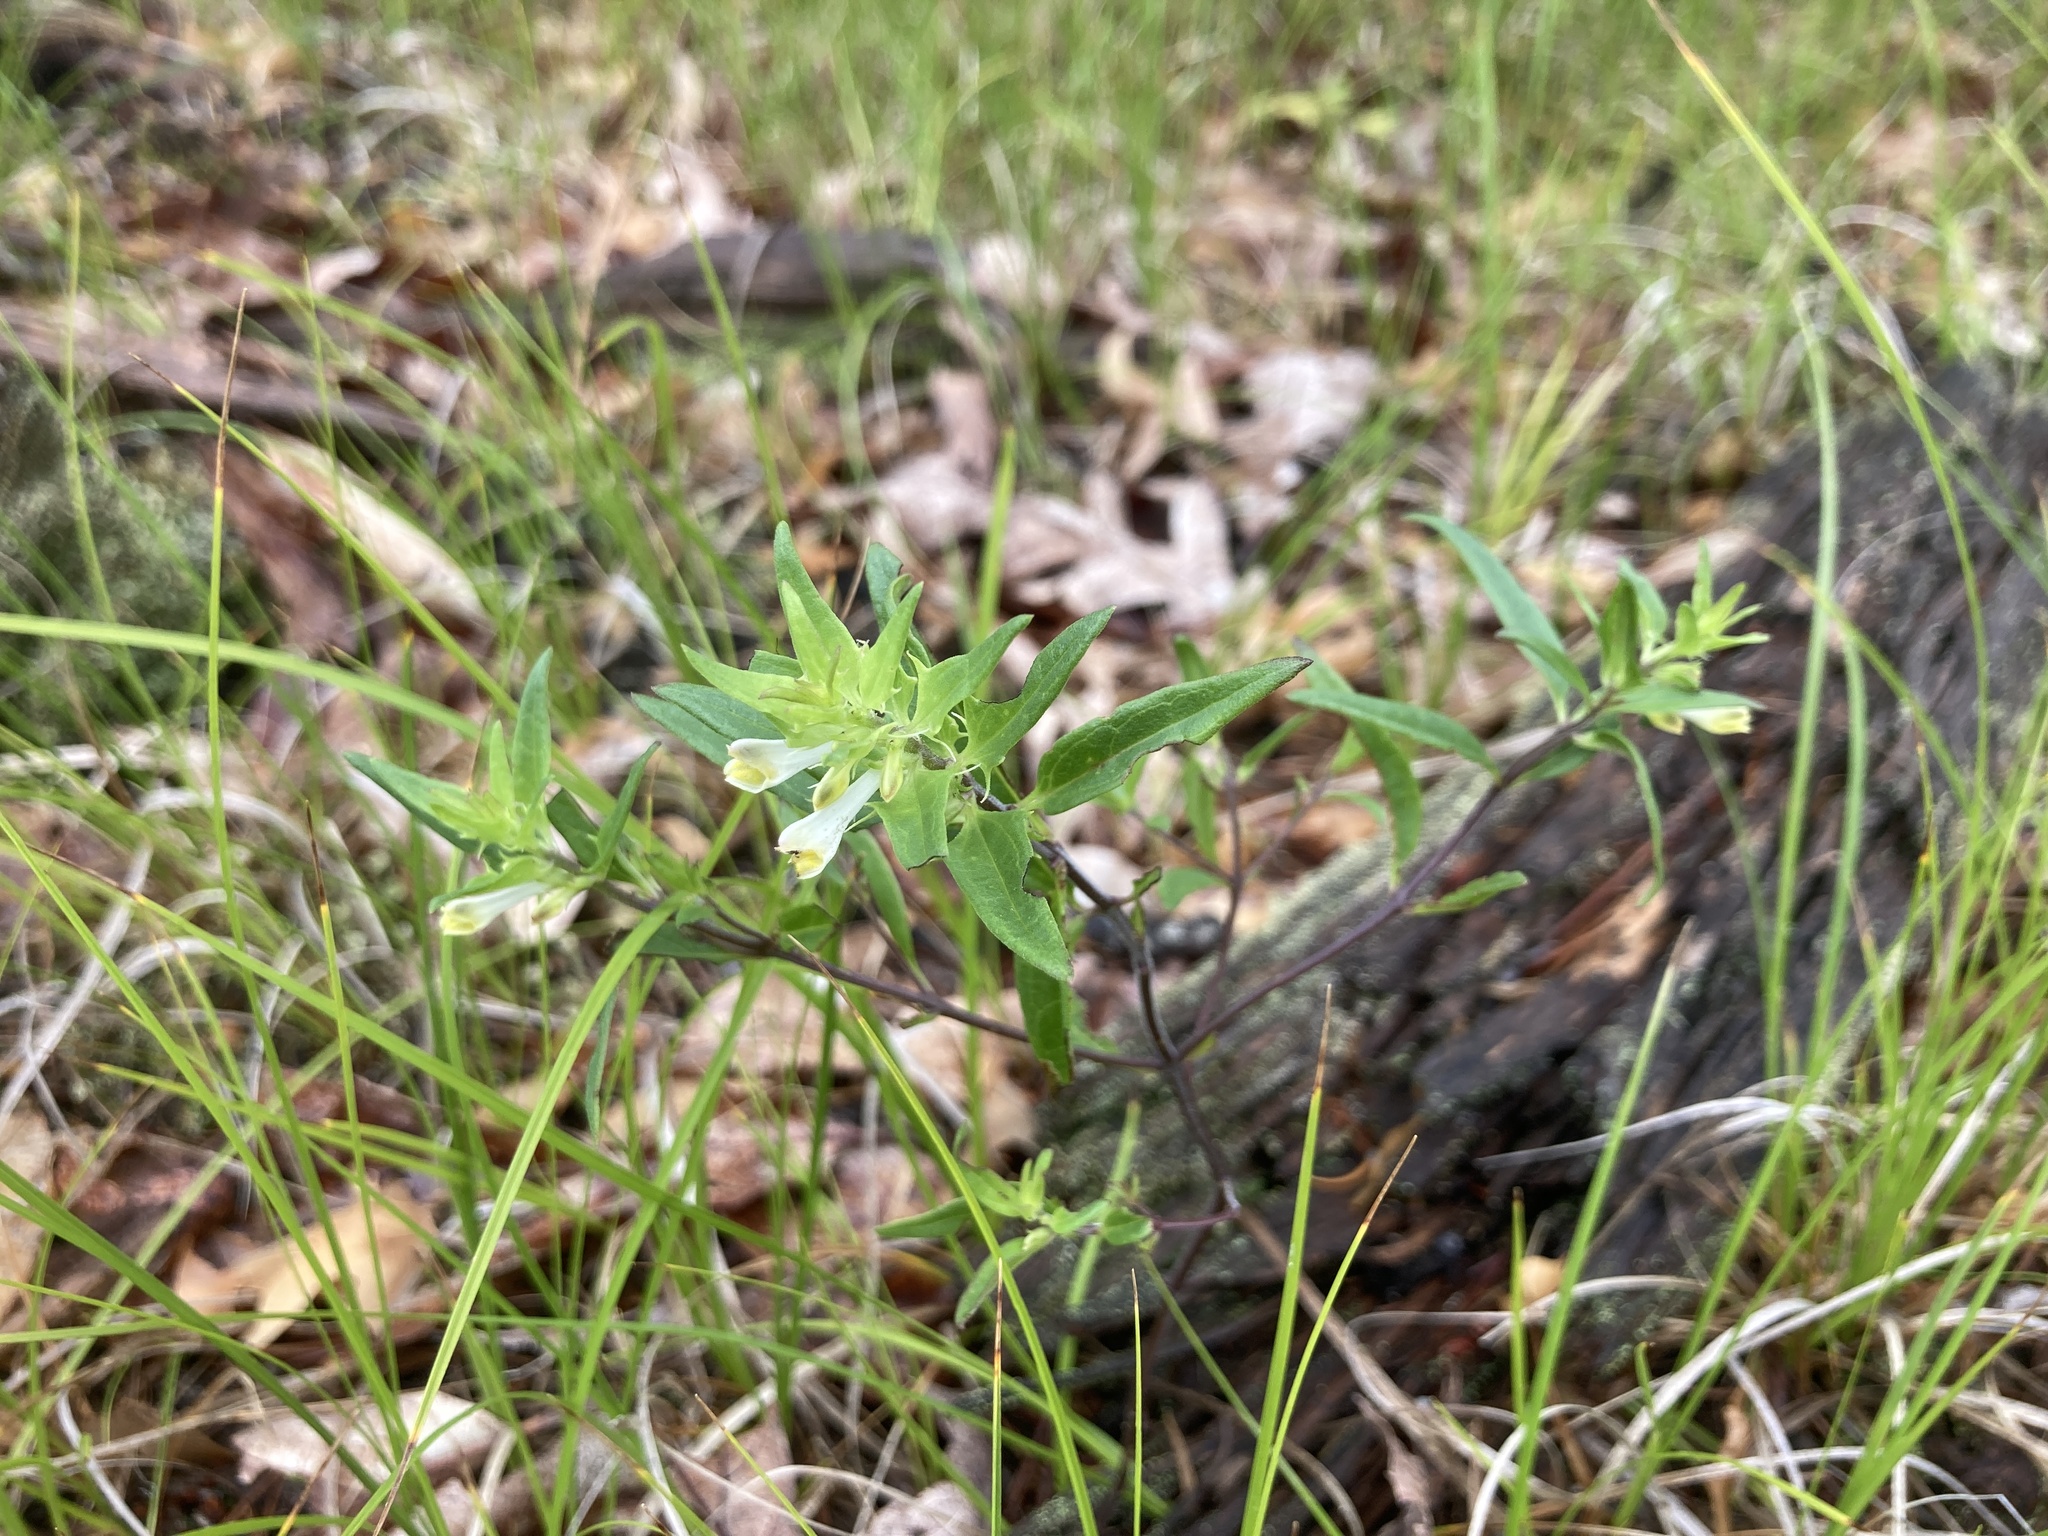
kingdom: Plantae
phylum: Tracheophyta
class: Magnoliopsida
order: Lamiales
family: Orobanchaceae
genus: Melampyrum
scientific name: Melampyrum lineare
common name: American cow-wheat
